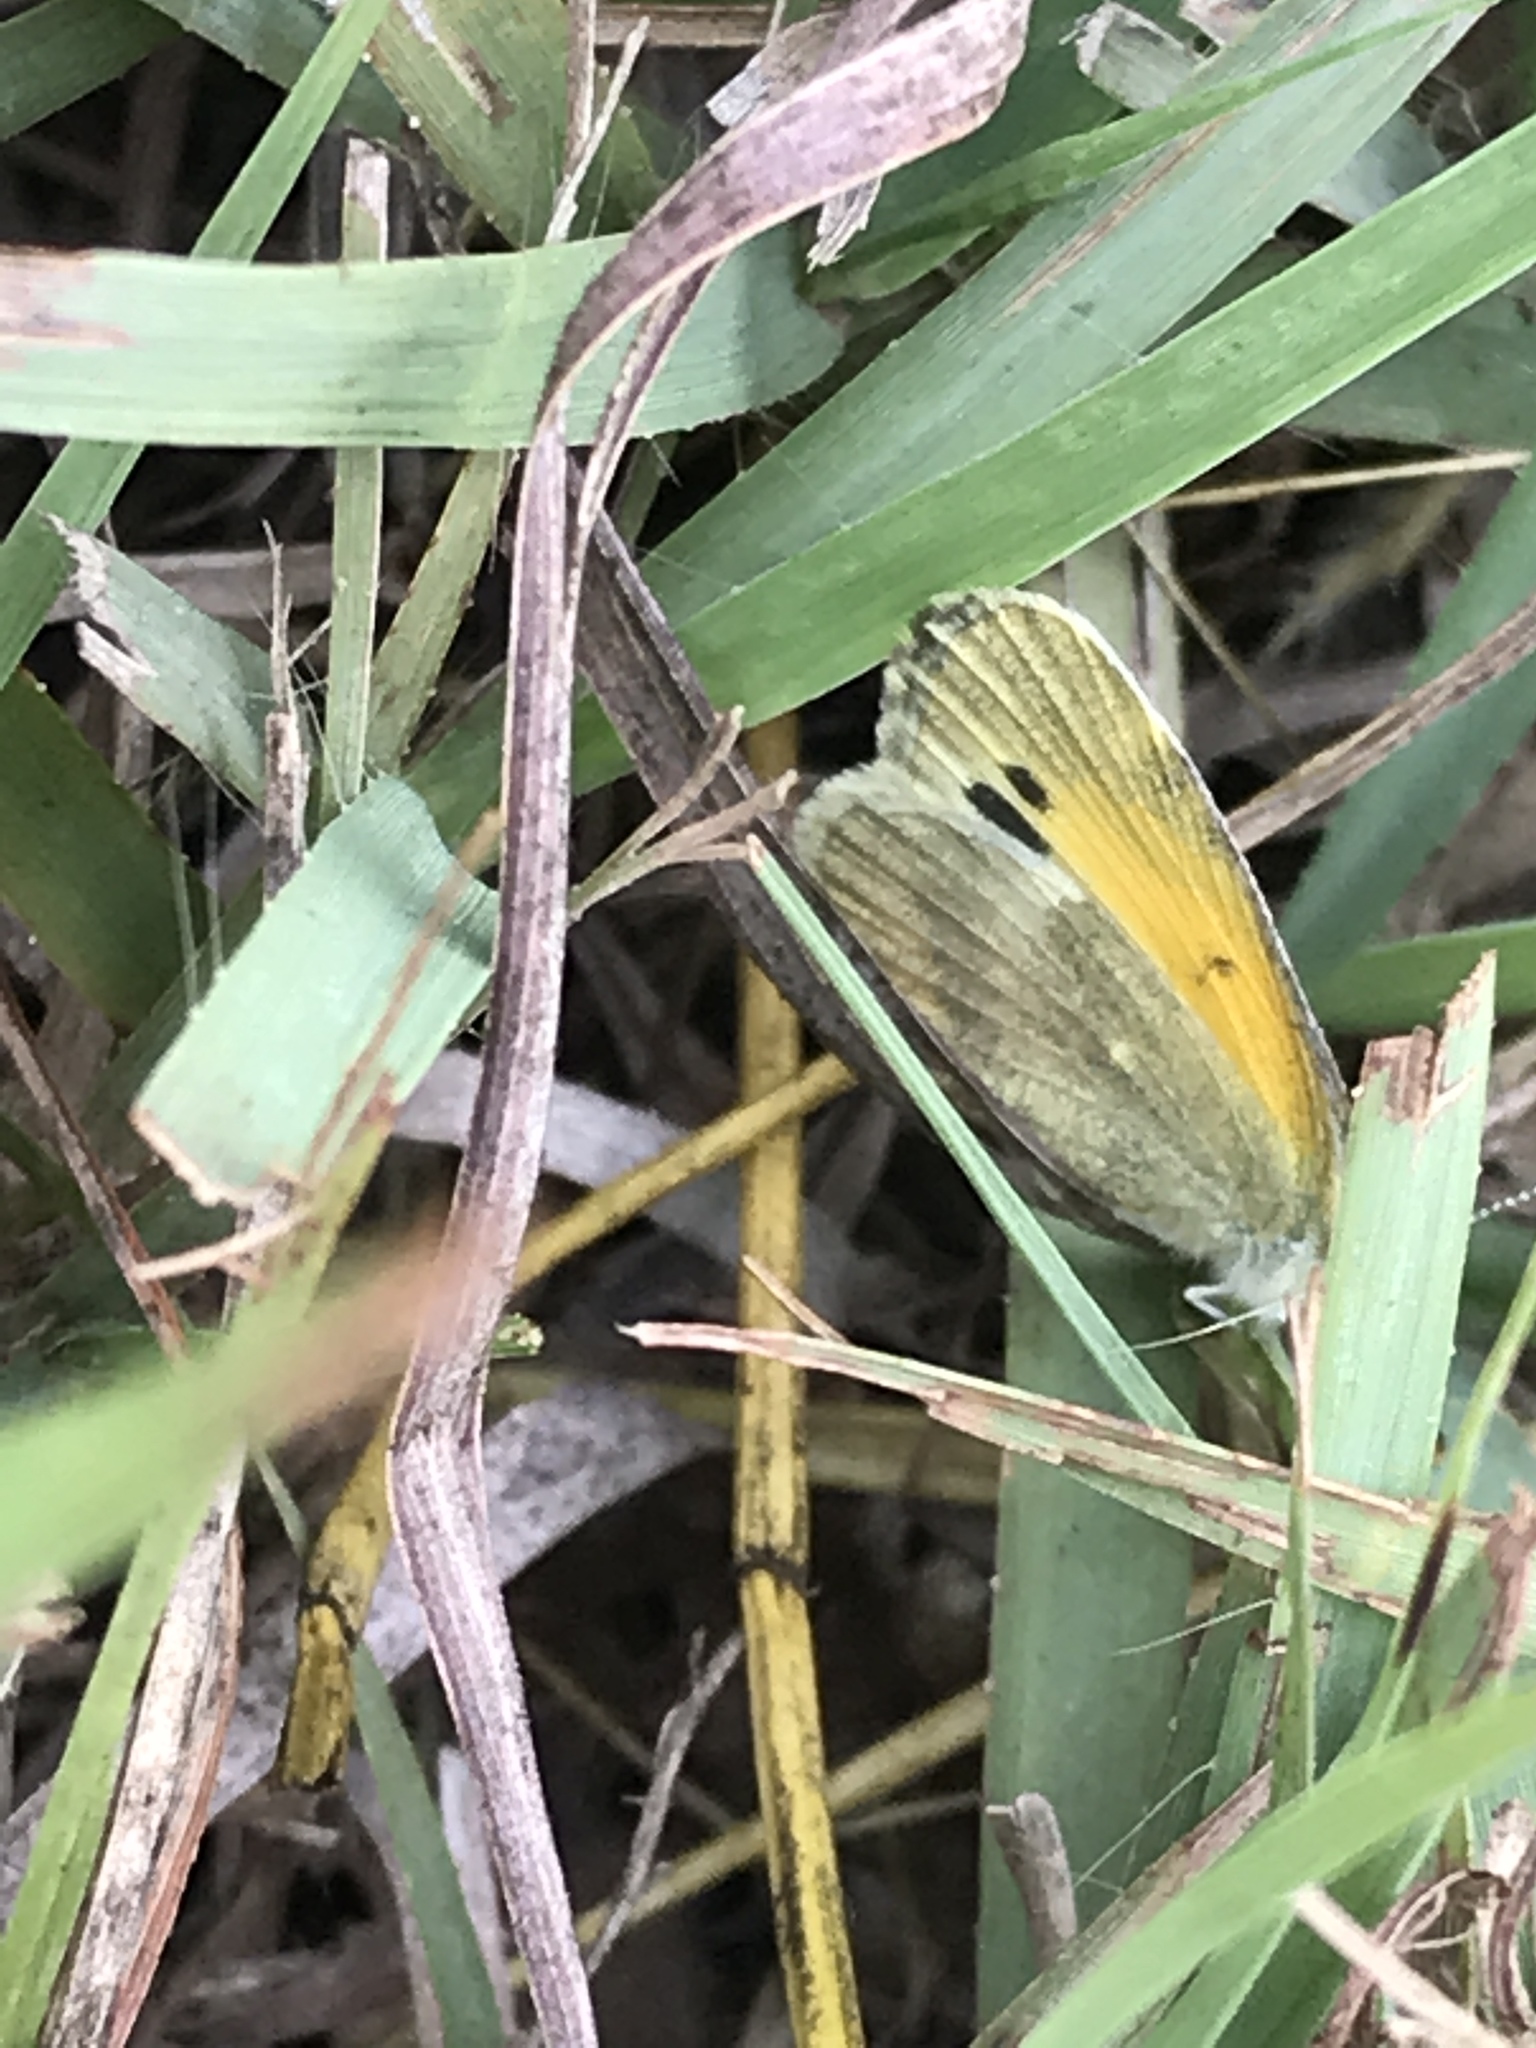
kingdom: Animalia
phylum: Arthropoda
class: Insecta
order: Lepidoptera
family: Pieridae
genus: Nathalis
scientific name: Nathalis iole
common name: Dainty sulphur
